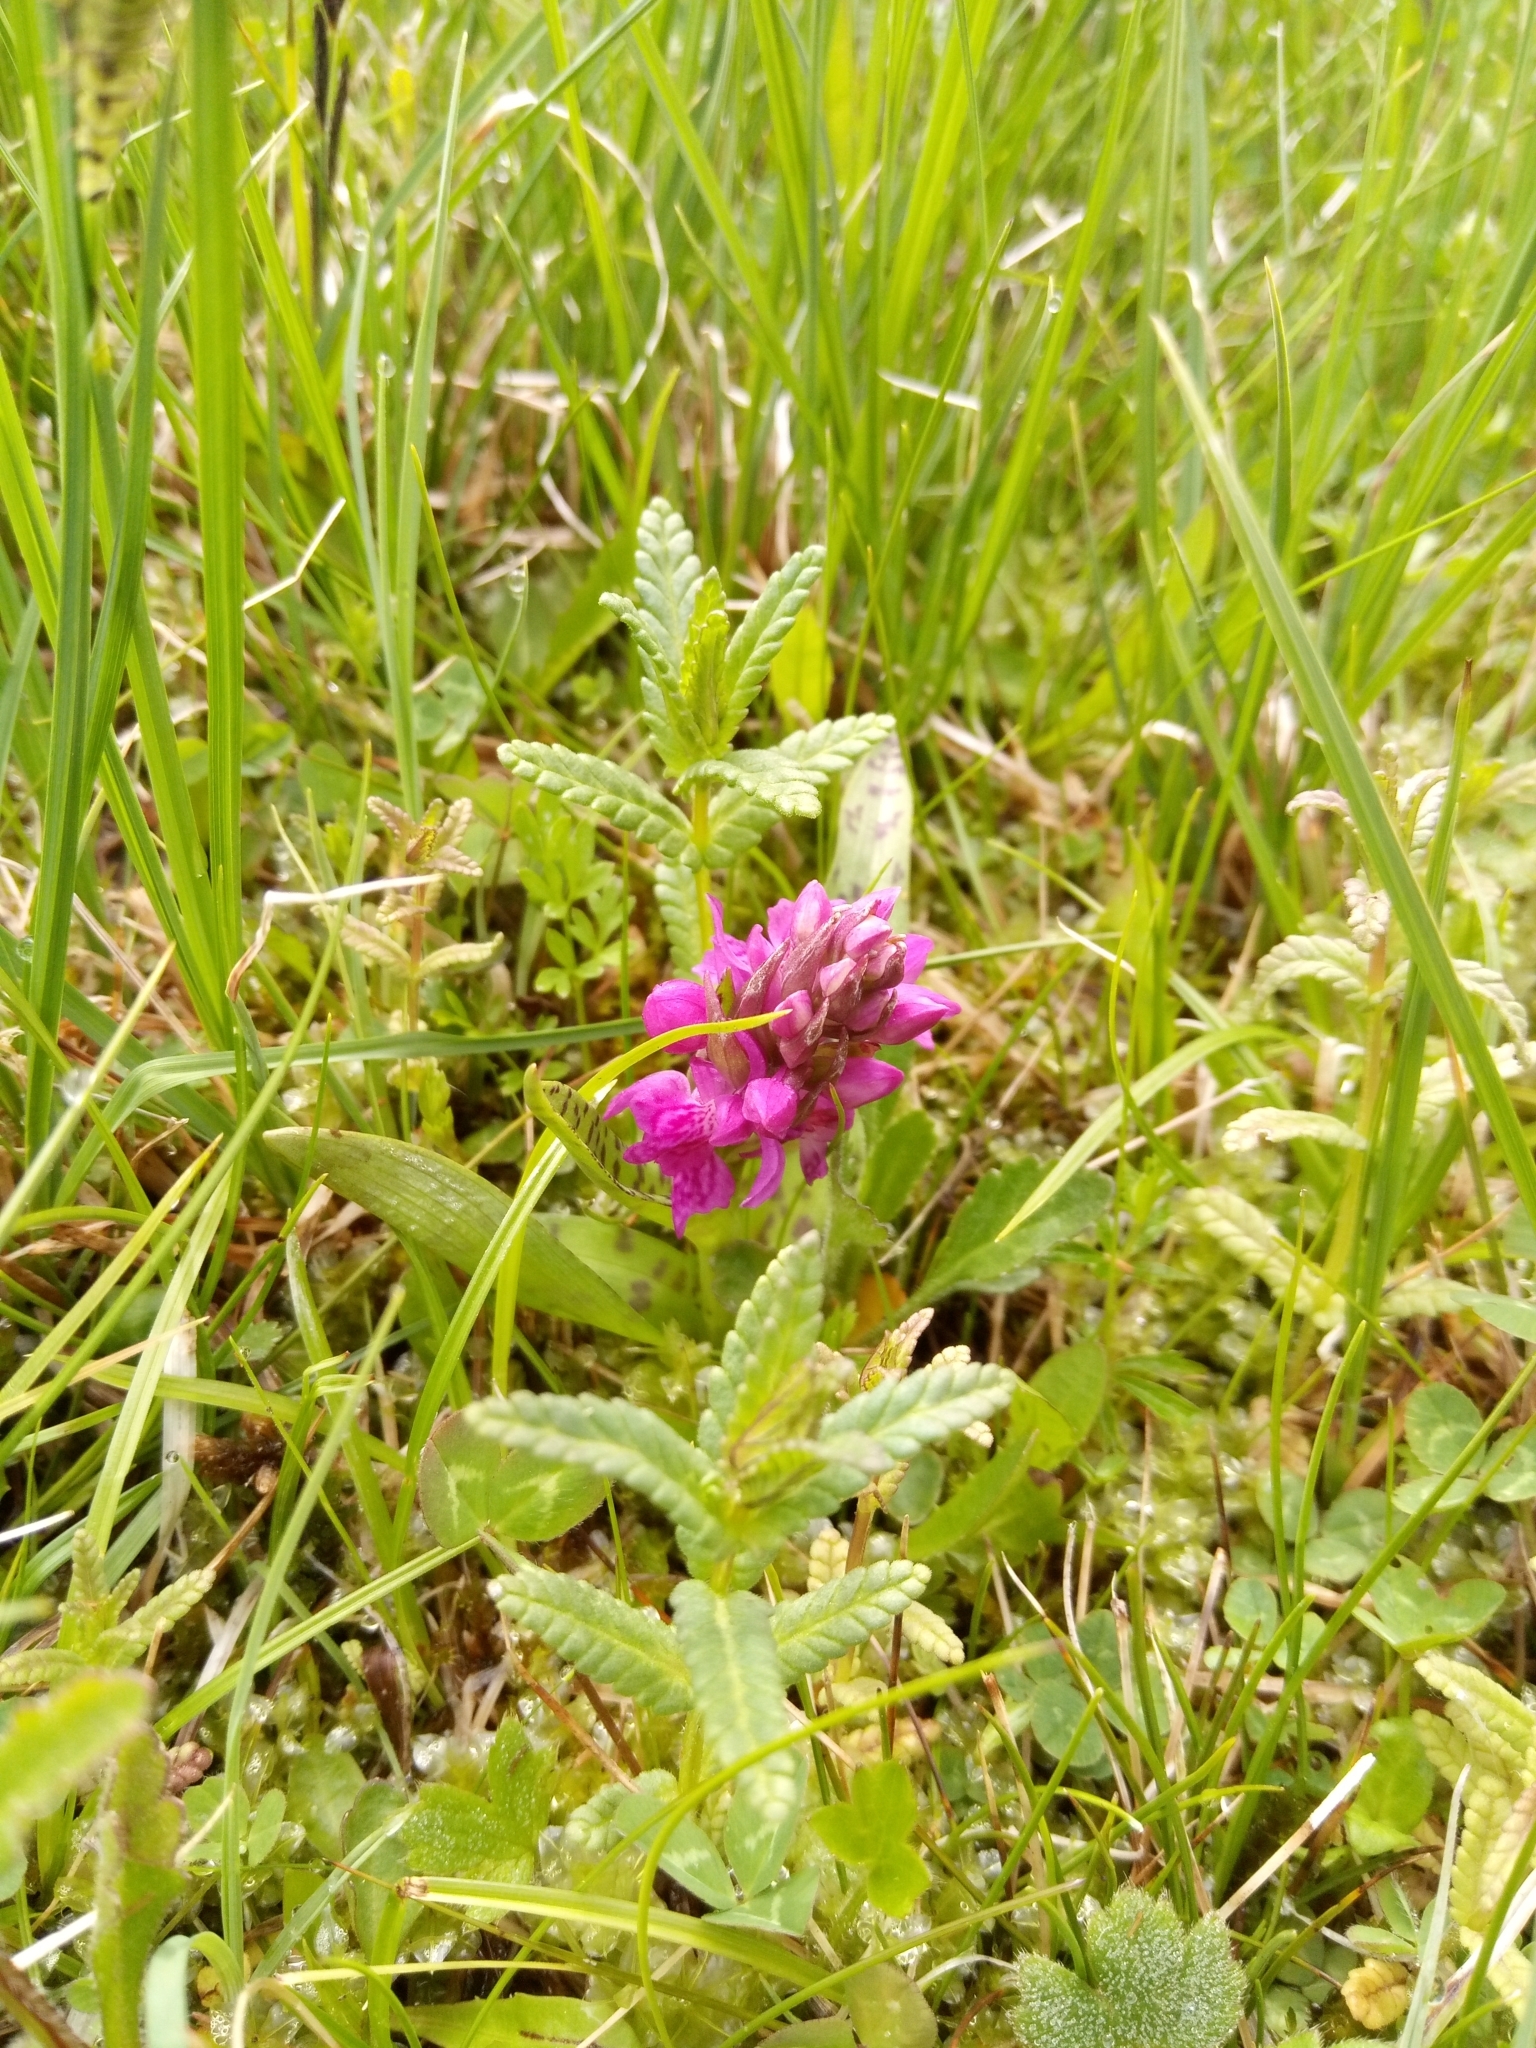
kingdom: Plantae
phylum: Tracheophyta
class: Liliopsida
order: Asparagales
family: Orchidaceae
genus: Dactylorhiza
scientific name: Dactylorhiza majalis
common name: Marsh orchid
